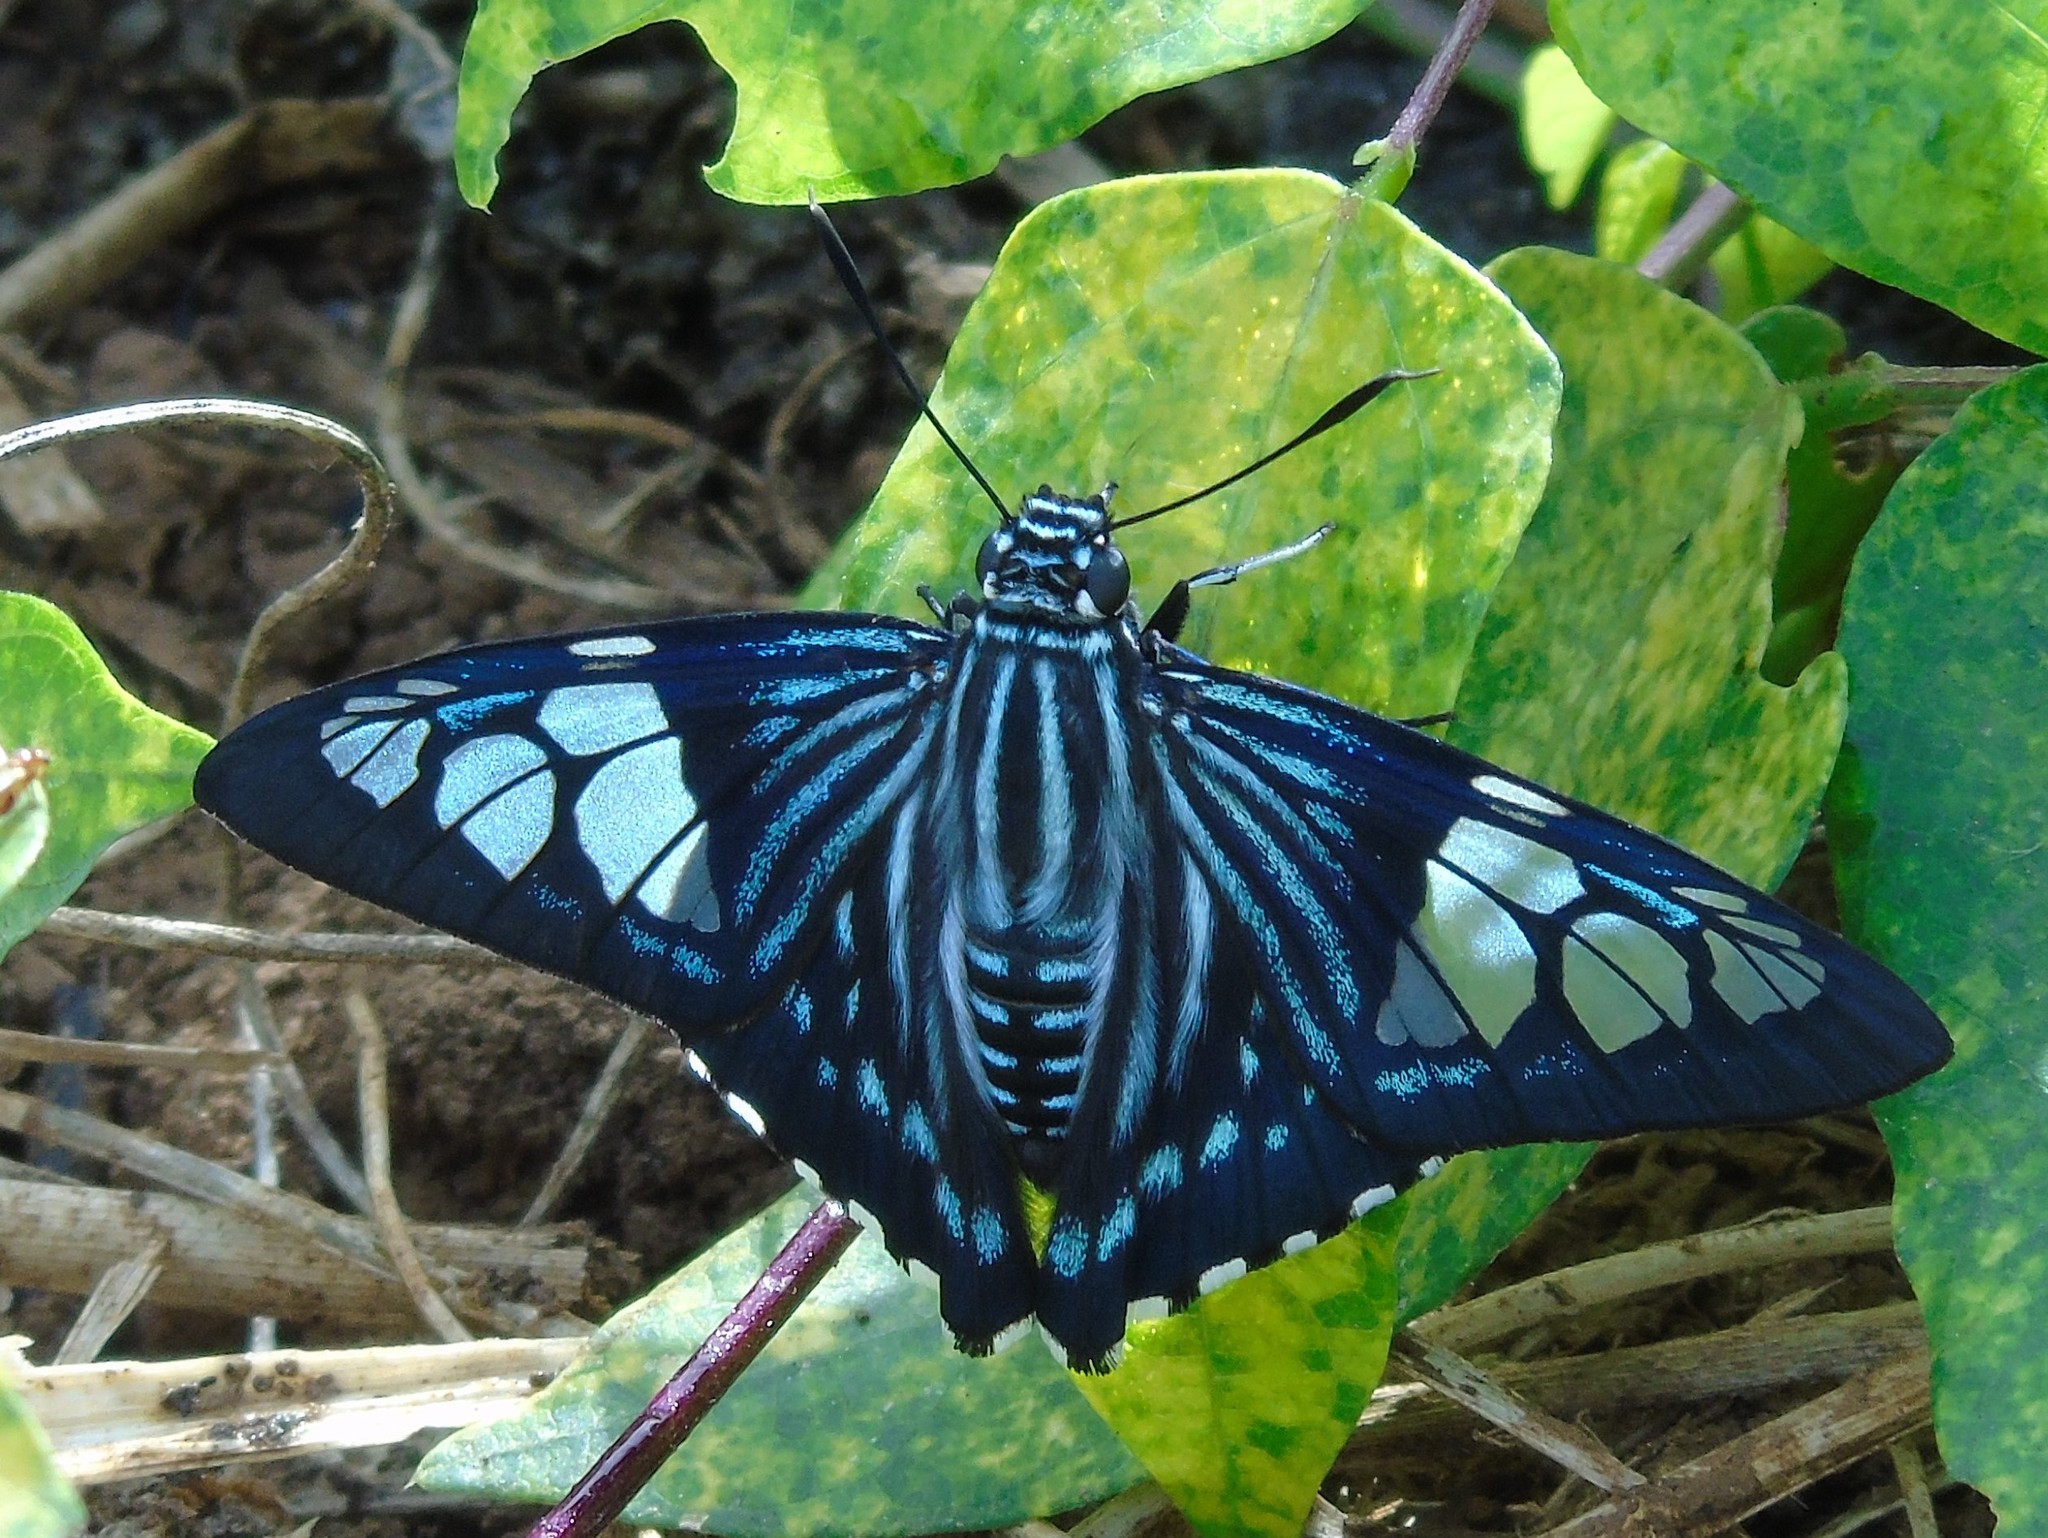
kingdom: Animalia
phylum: Arthropoda
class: Insecta
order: Lepidoptera
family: Hesperiidae
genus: Phocides
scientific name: Phocides pigmalion
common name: Mangrove skipper
